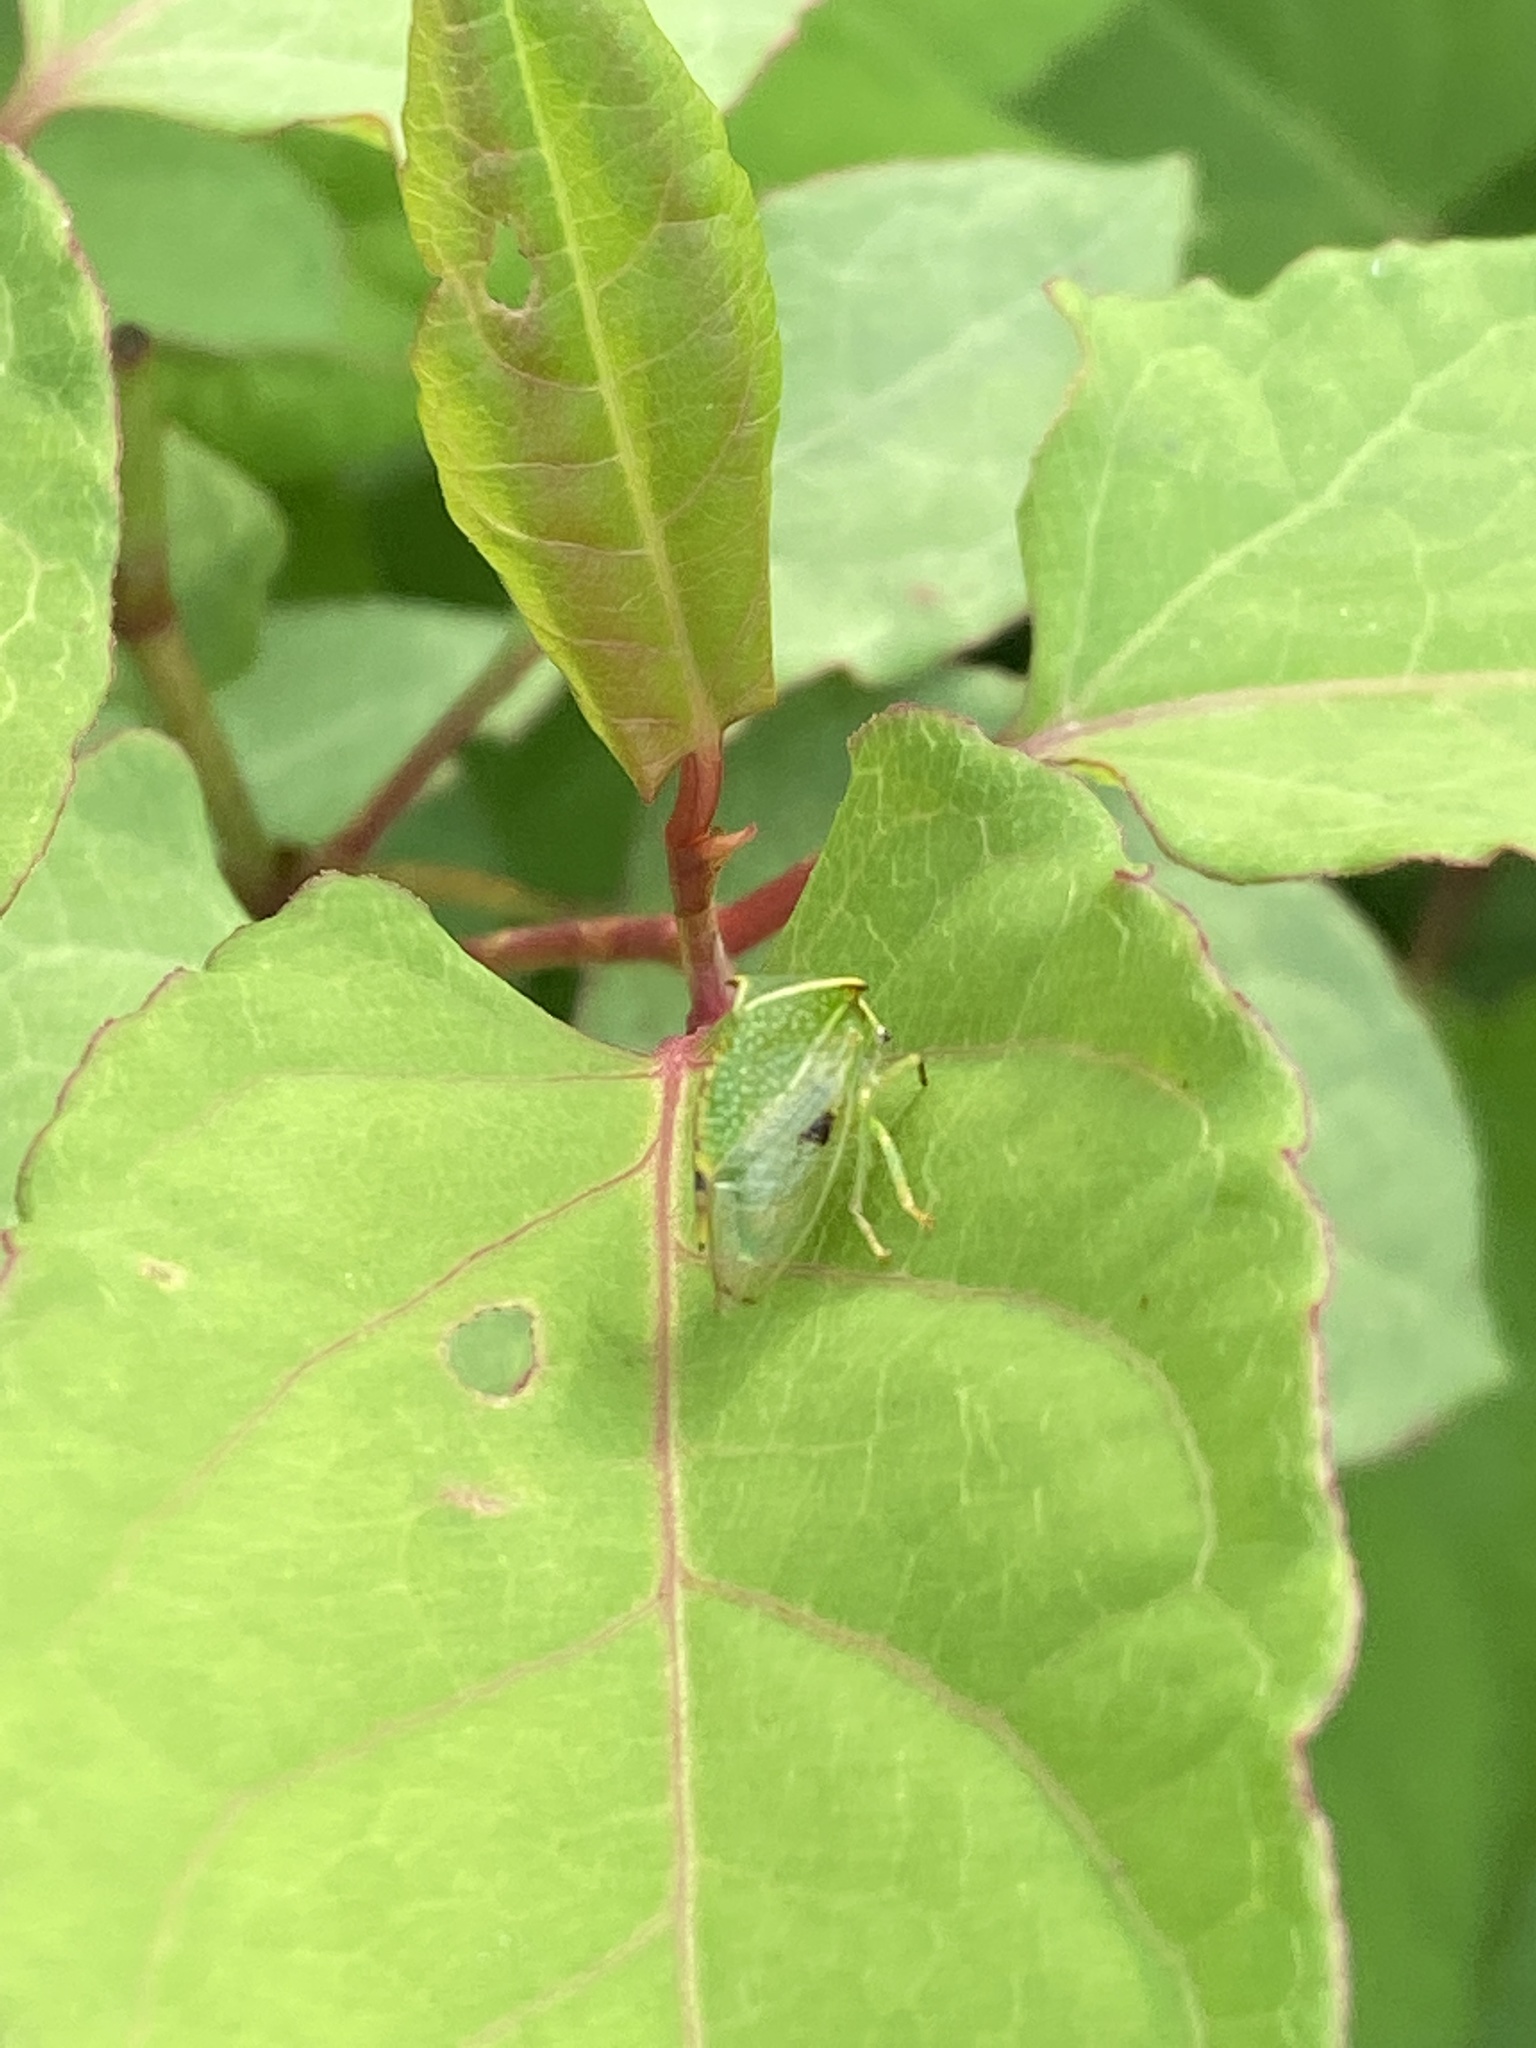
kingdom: Animalia
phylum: Arthropoda
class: Insecta
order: Hemiptera
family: Membracidae
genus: Stictocephala
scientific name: Stictocephala bisonia
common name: American buffalo treehopper
